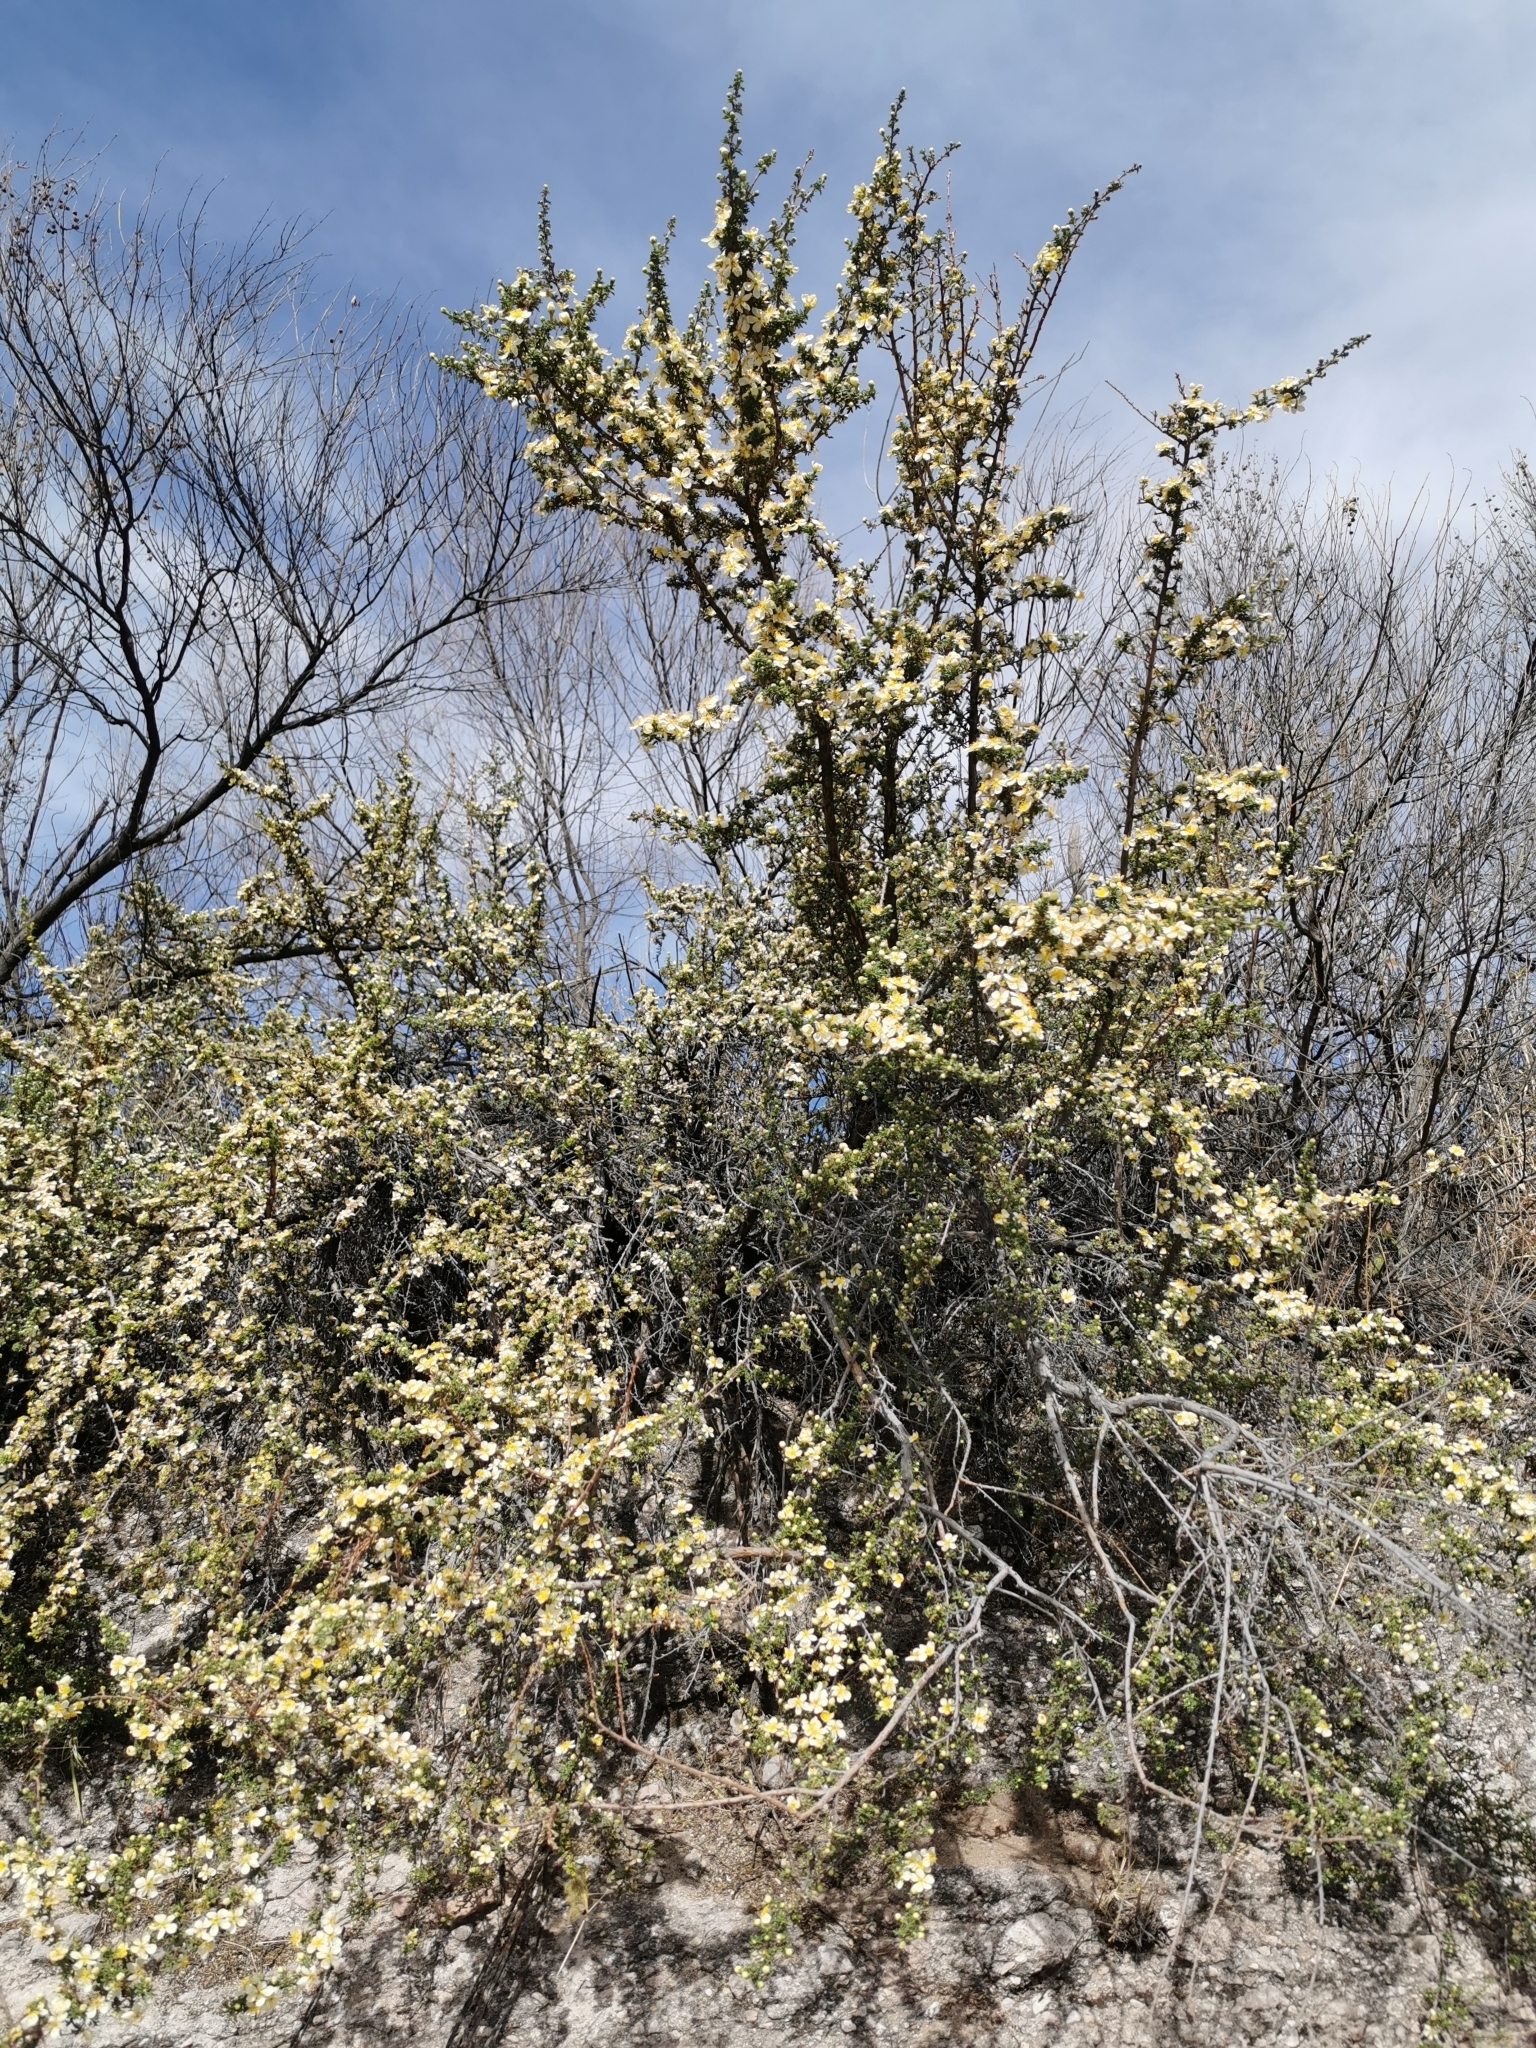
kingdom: Plantae
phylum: Tracheophyta
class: Magnoliopsida
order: Rosales
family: Rosaceae
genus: Purshia
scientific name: Purshia mexicana
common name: Mexican cliffrose
